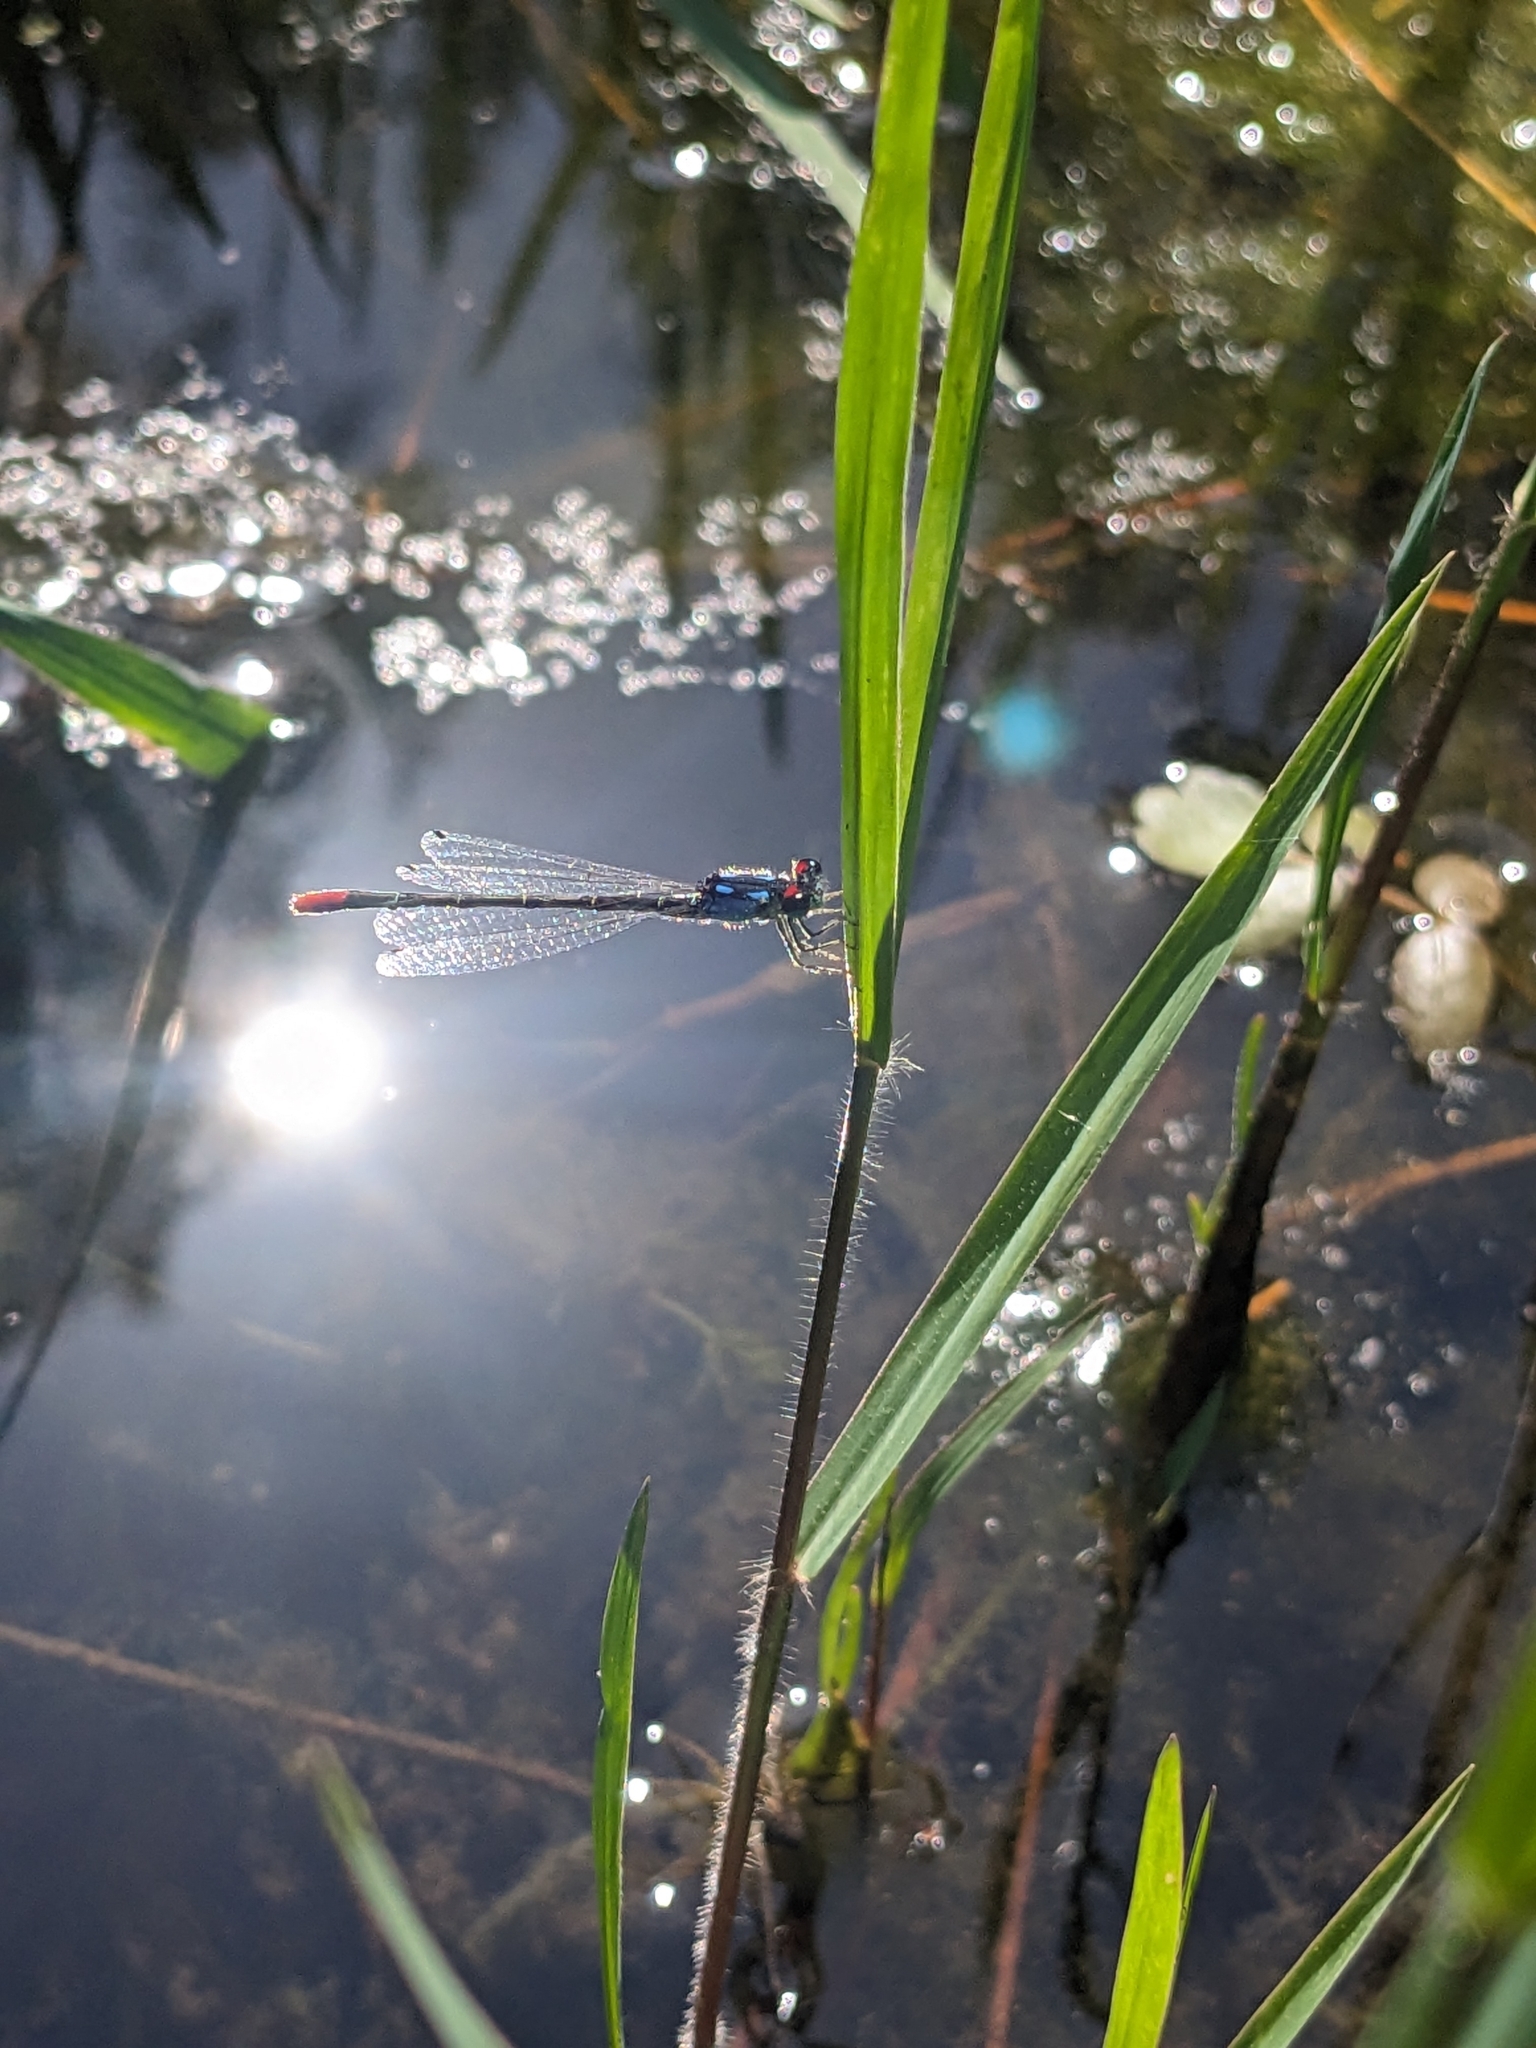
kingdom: Animalia
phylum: Arthropoda
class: Insecta
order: Odonata
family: Coenagrionidae
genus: Hesperagrion
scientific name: Hesperagrion heterodoxum
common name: Painted damsel
